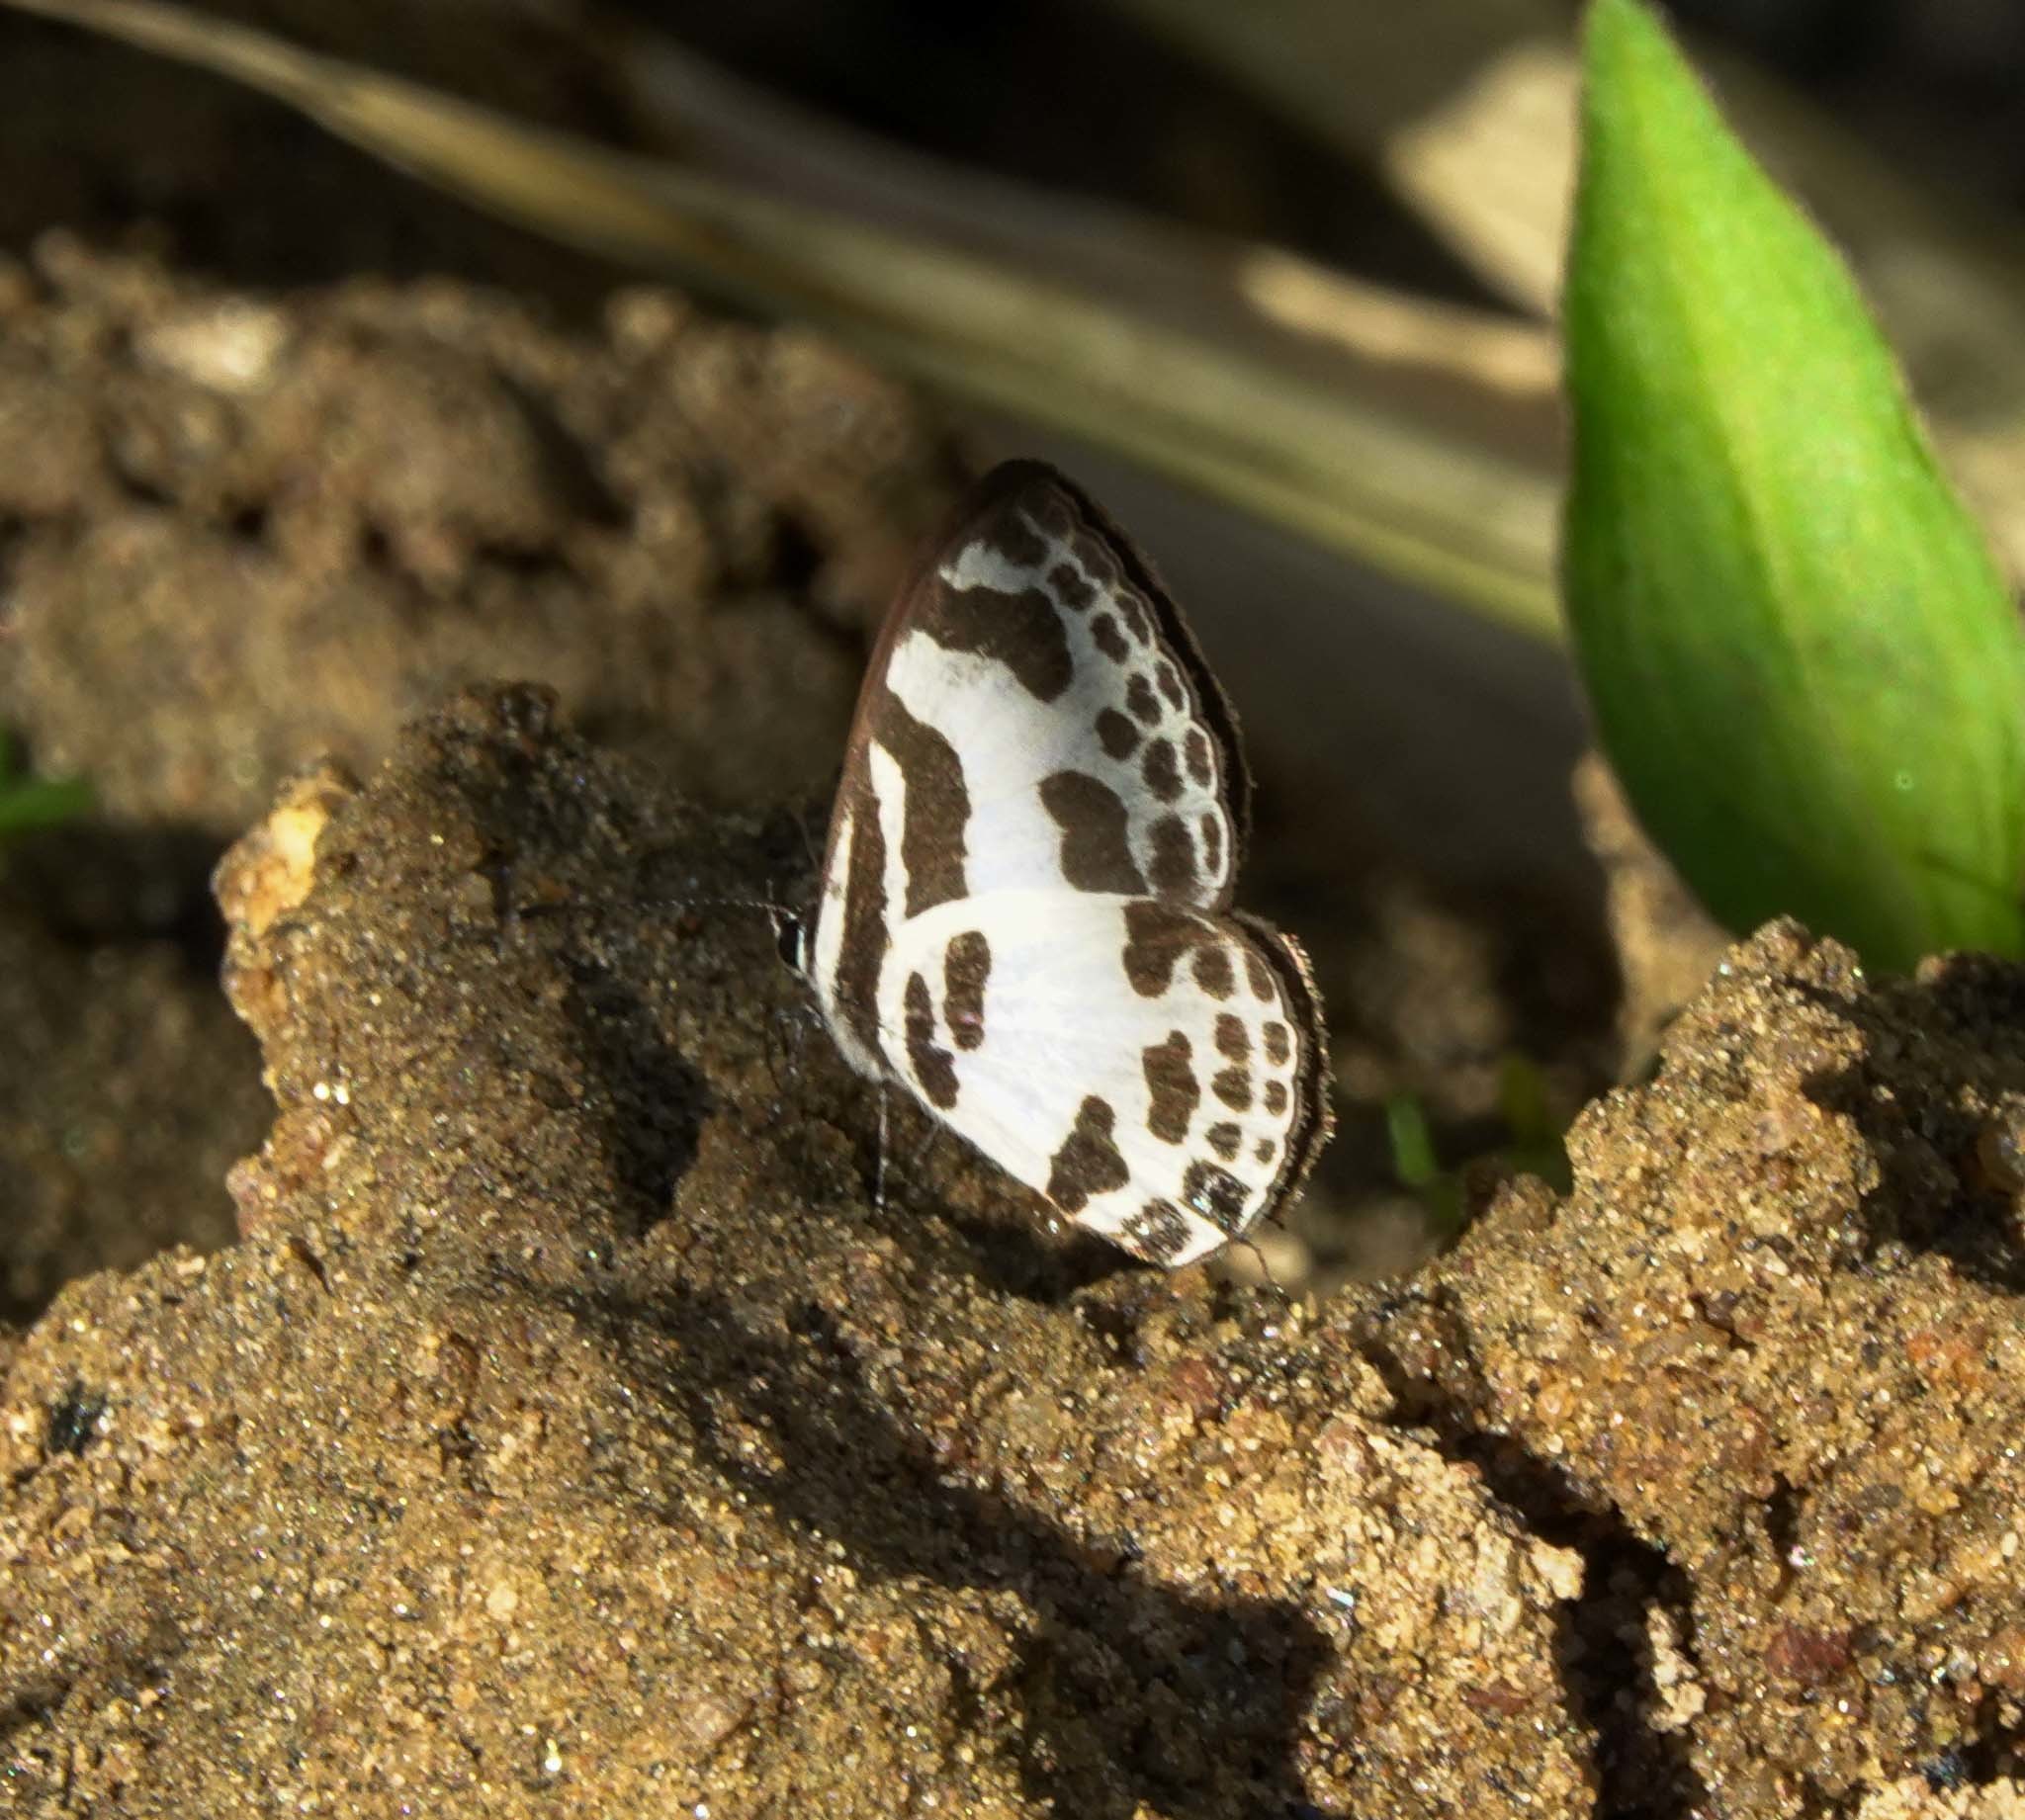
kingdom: Animalia
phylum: Arthropoda
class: Insecta
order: Lepidoptera
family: Lycaenidae
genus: Discolampa
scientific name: Discolampa ethion
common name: Banded blue pierrot
